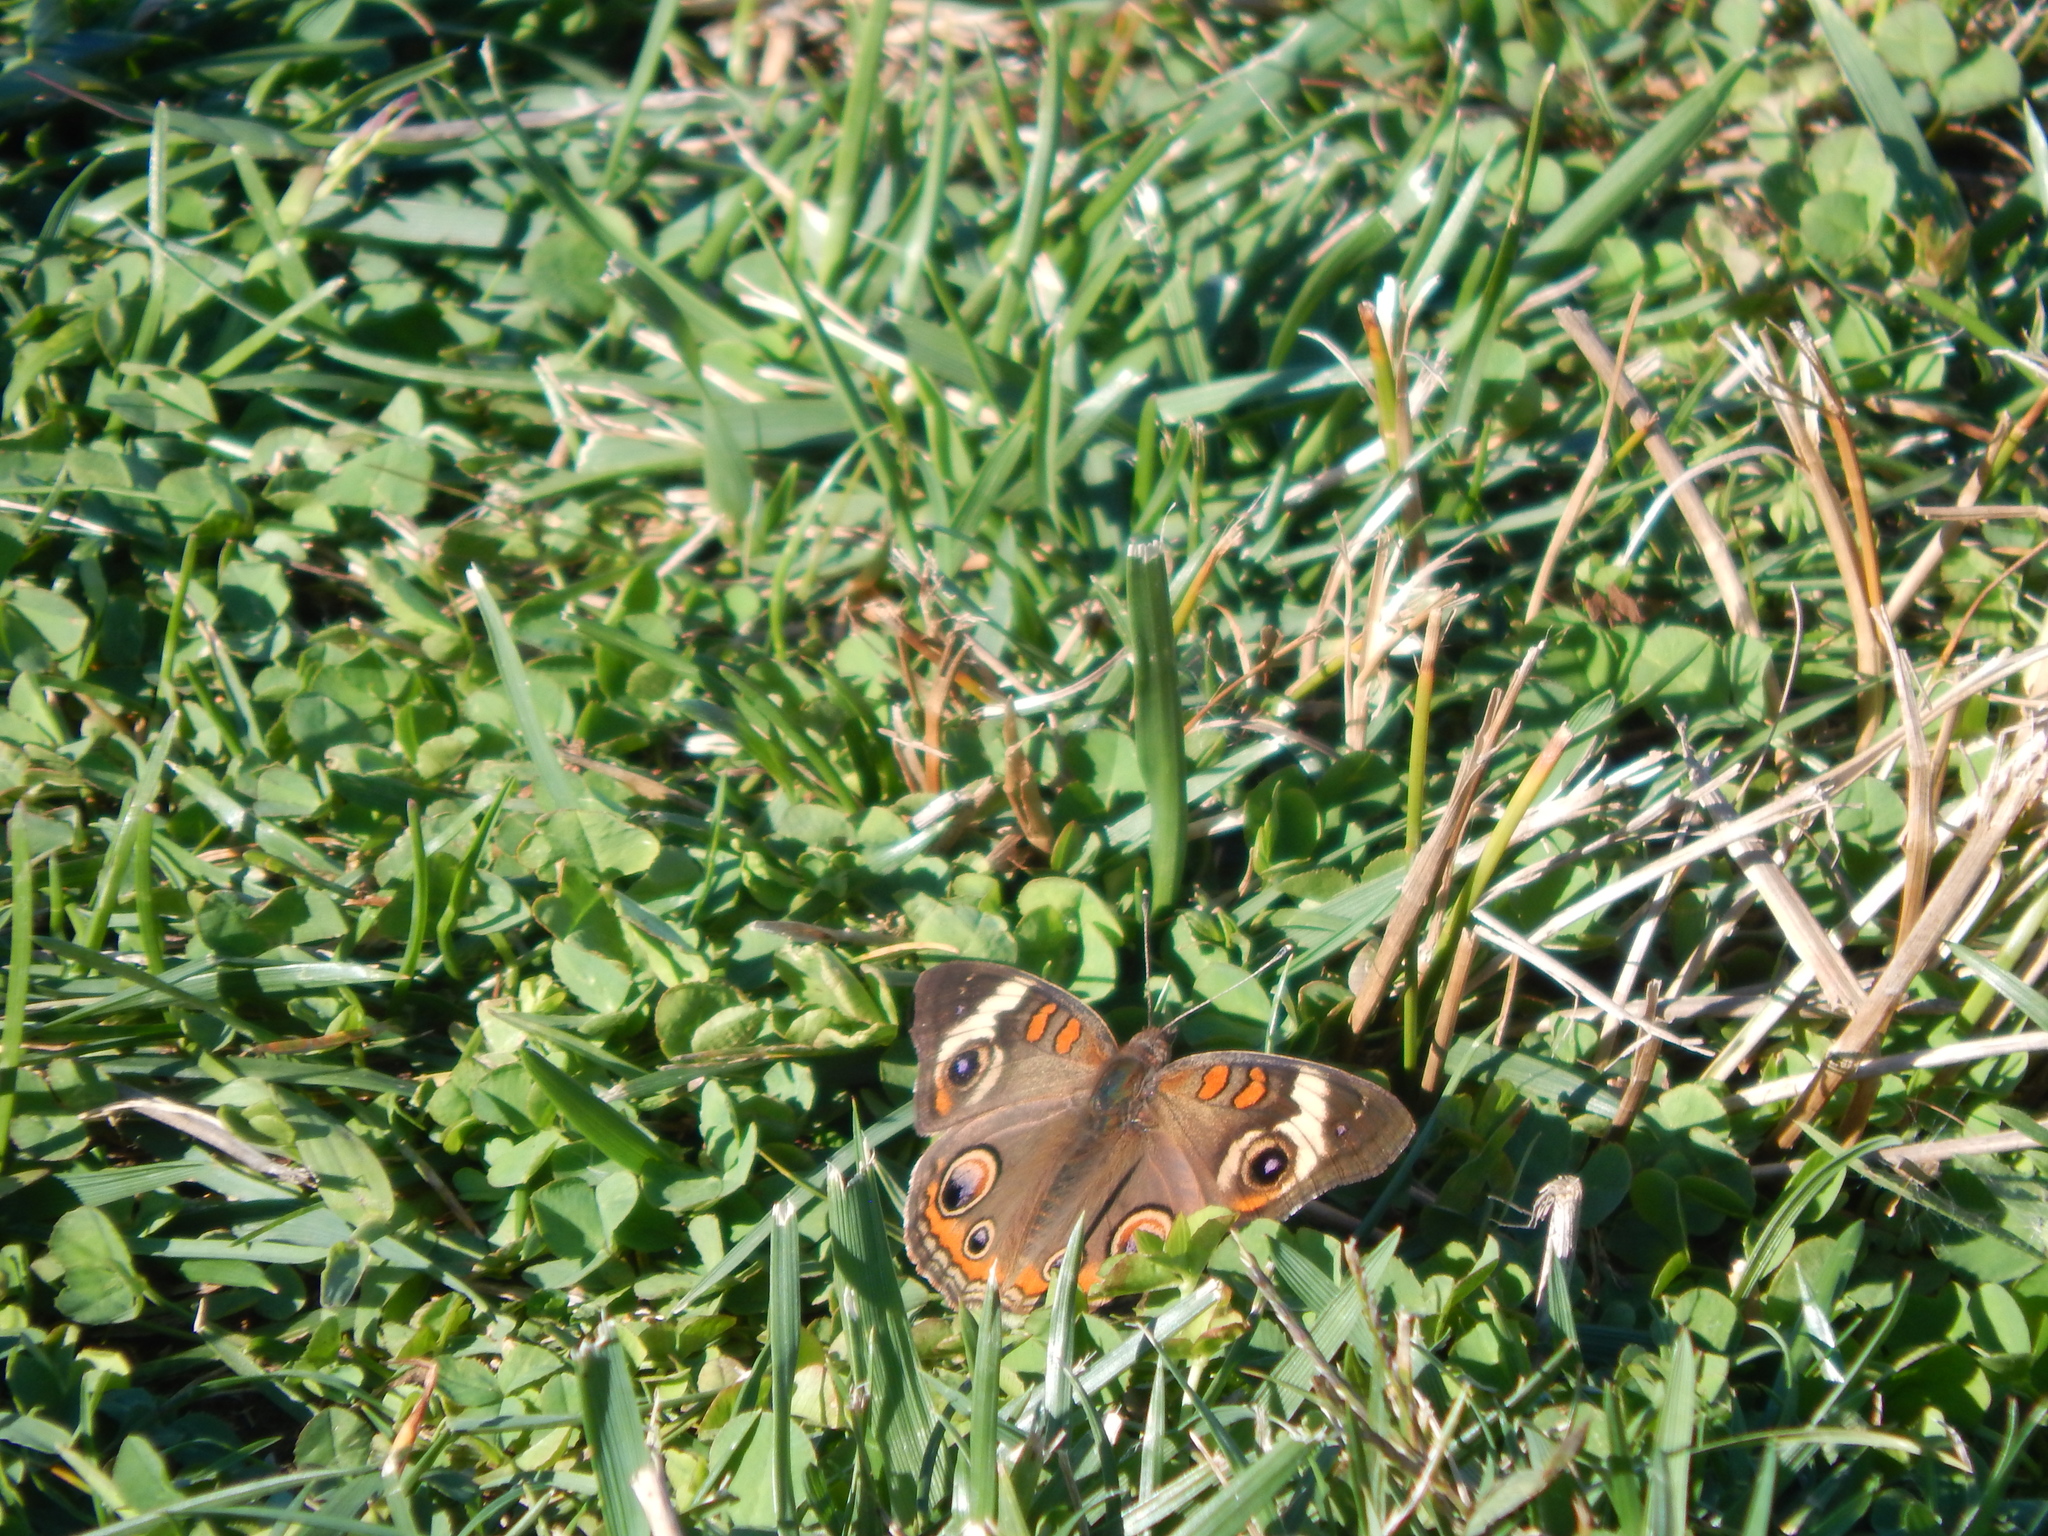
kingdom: Animalia
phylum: Arthropoda
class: Insecta
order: Lepidoptera
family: Nymphalidae
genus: Junonia
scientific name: Junonia coenia
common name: Common buckeye
